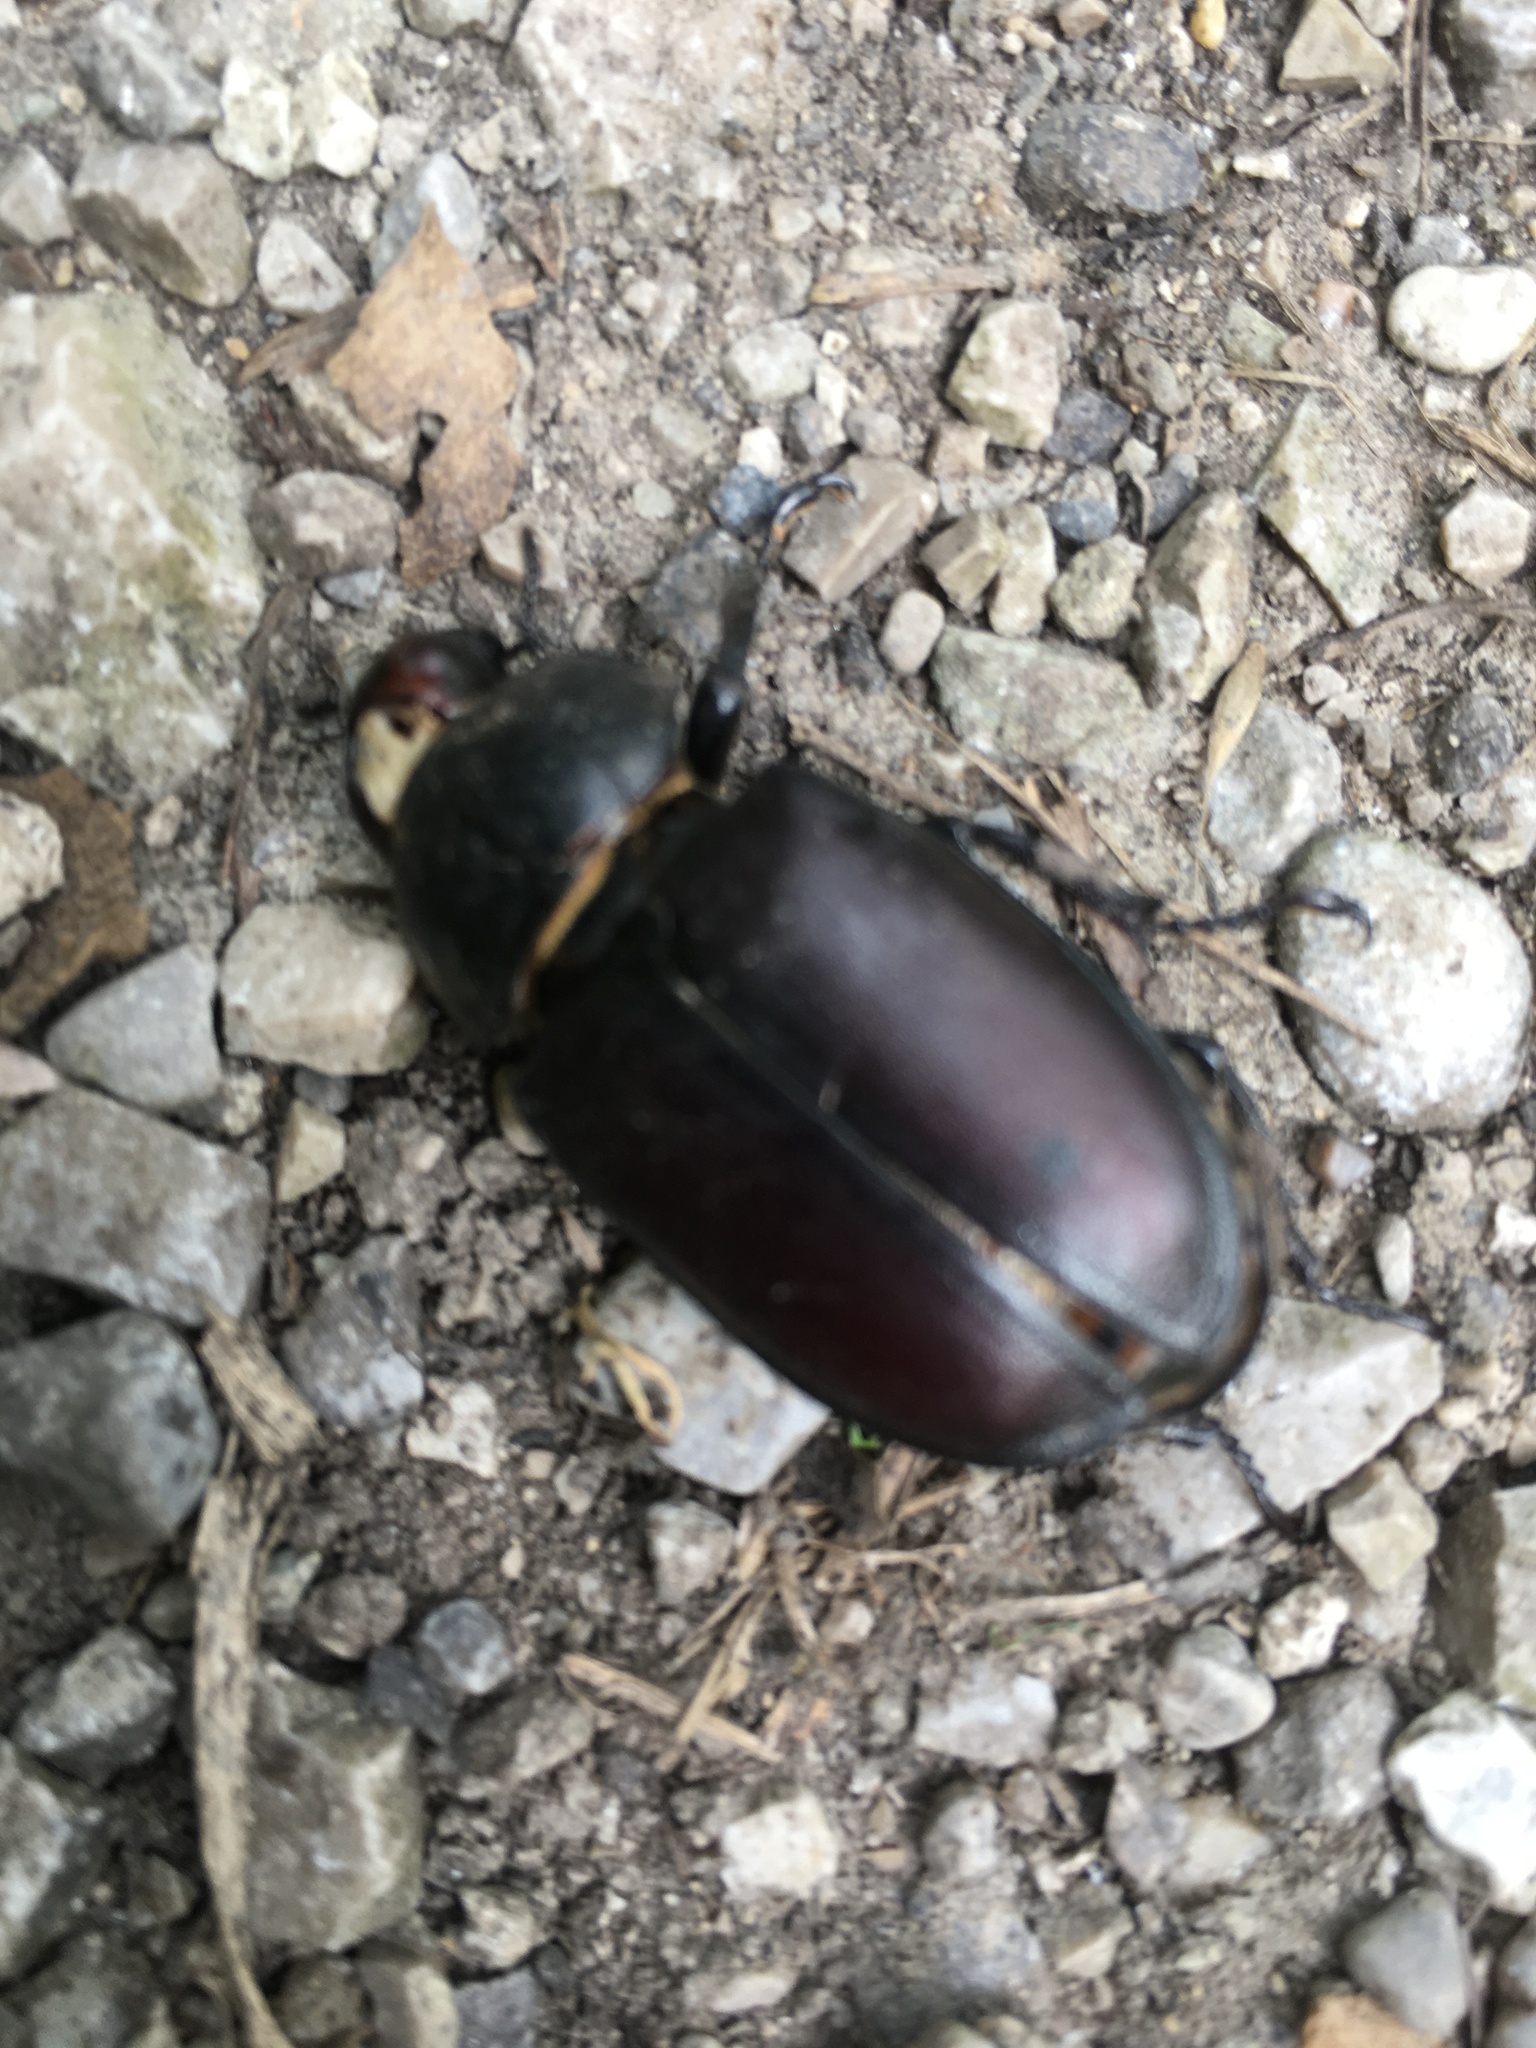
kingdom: Animalia
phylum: Arthropoda
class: Insecta
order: Coleoptera
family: Lucanidae
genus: Lucanus
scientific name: Lucanus cervus
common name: Stag beetle
